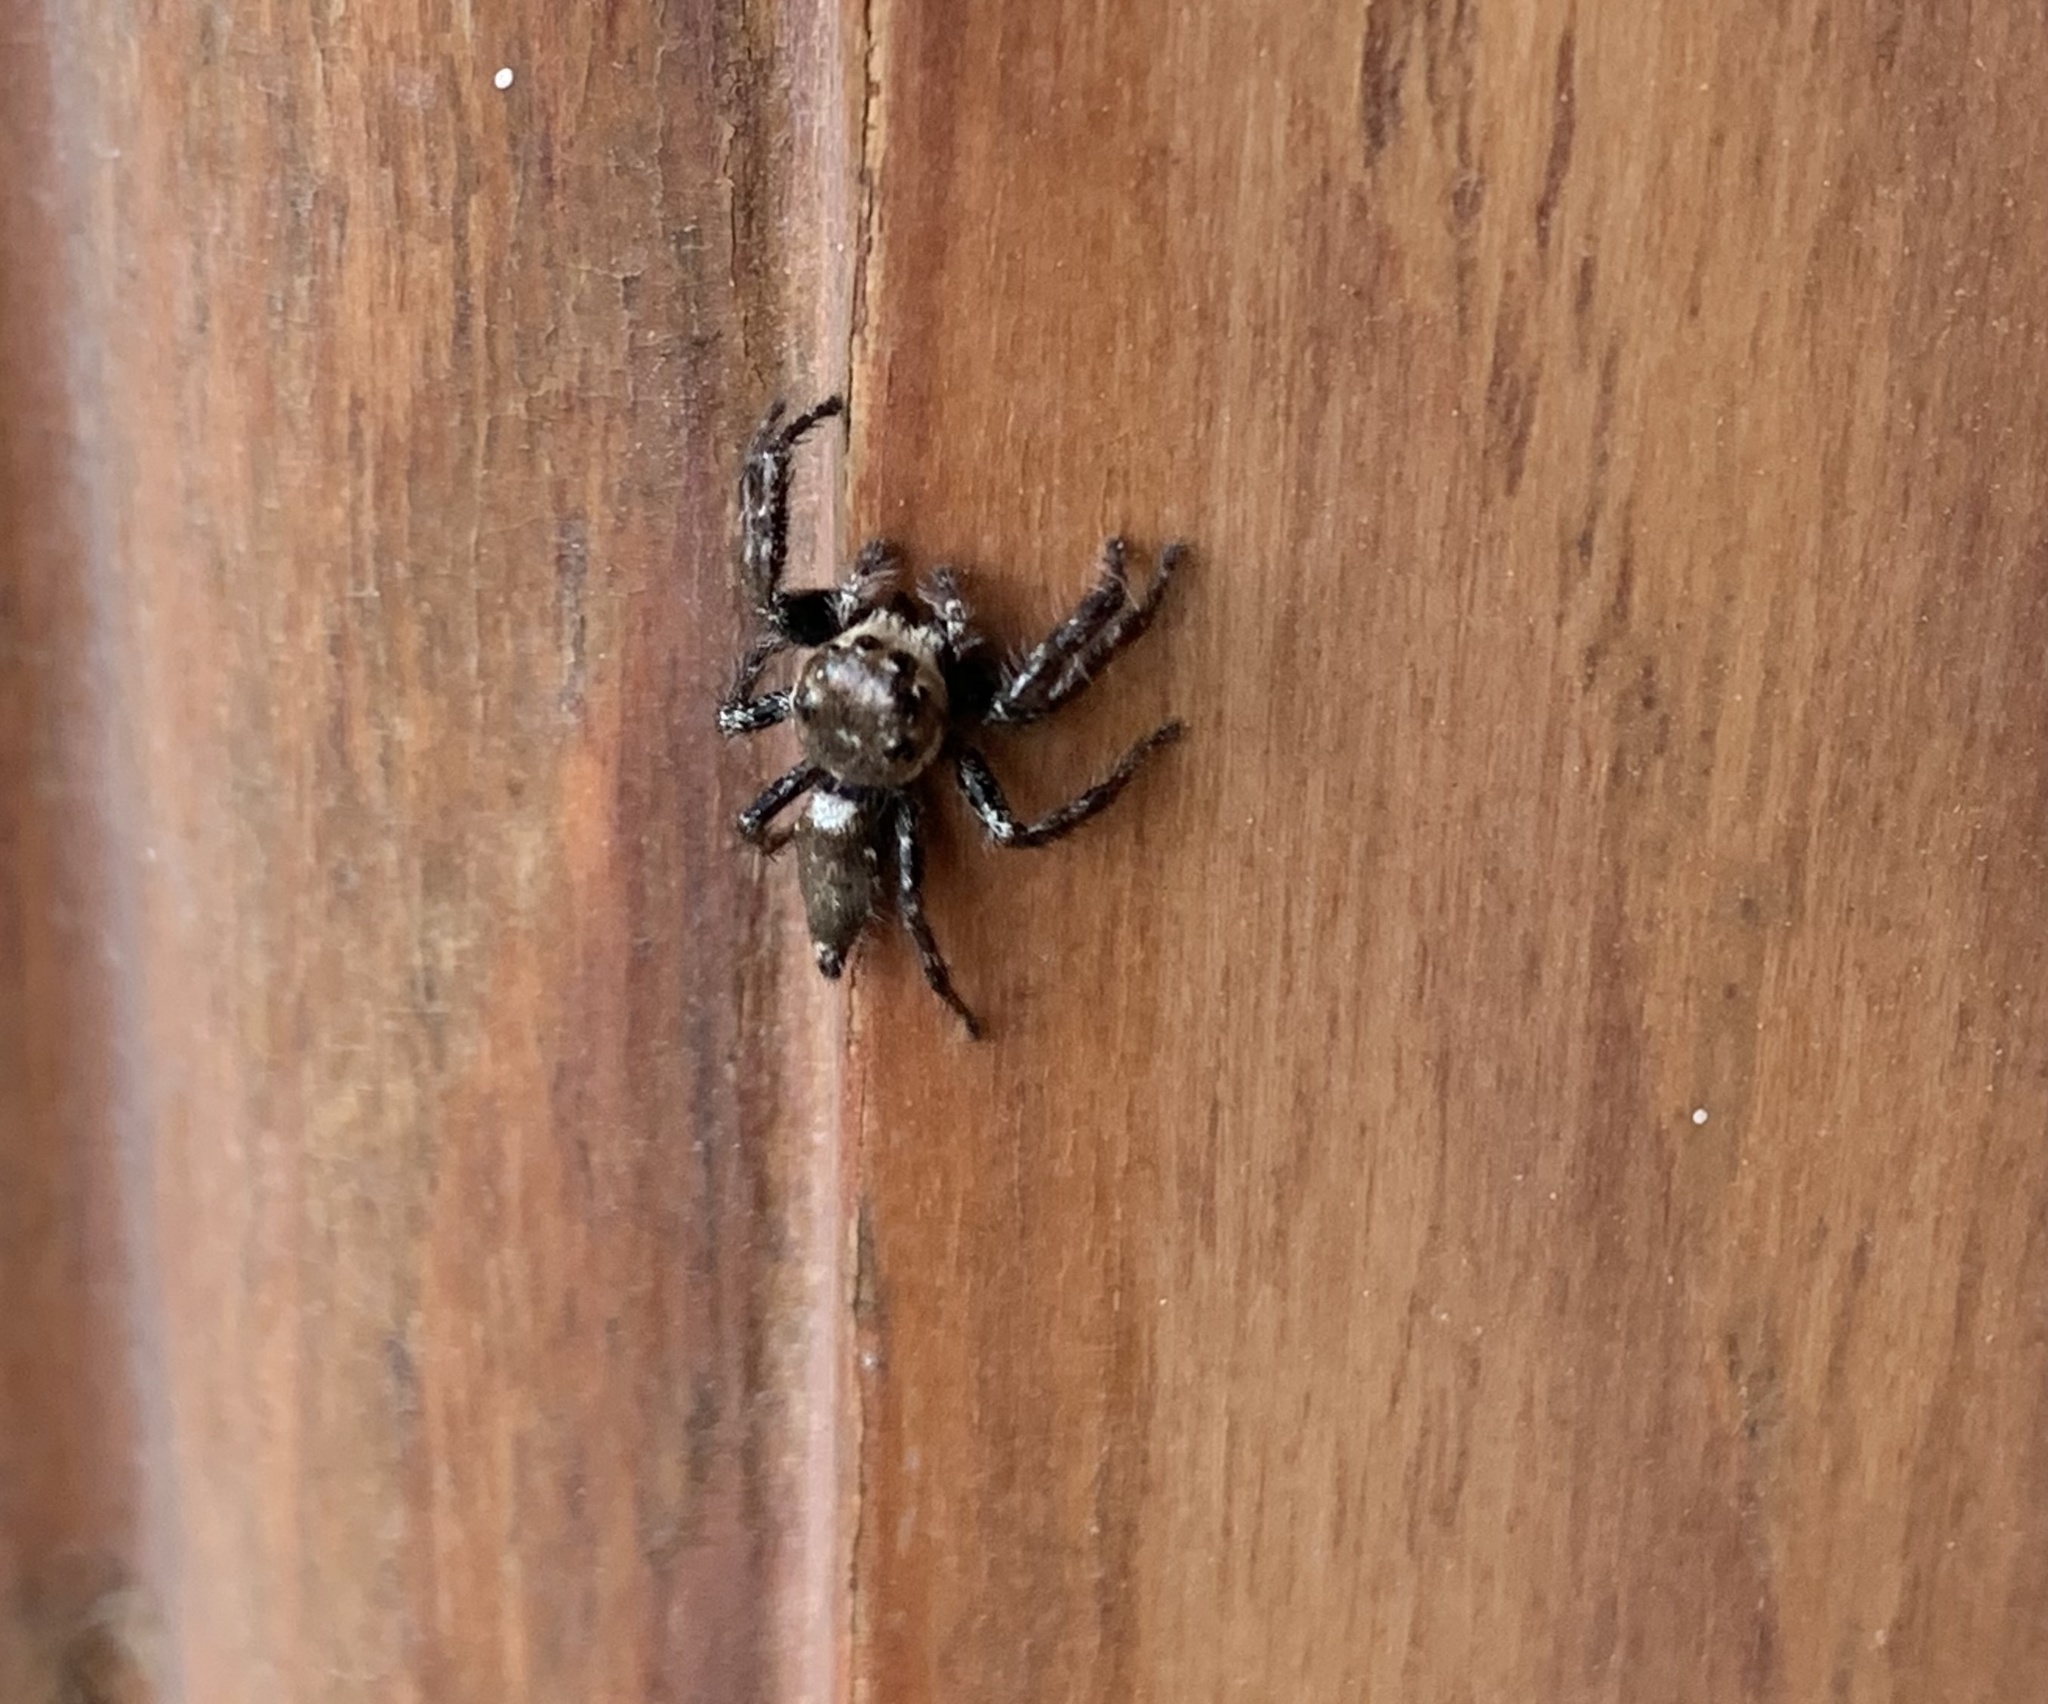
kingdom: Animalia
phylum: Arthropoda
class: Arachnida
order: Araneae
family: Salticidae
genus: Hyllus
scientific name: Hyllus semicupreus
